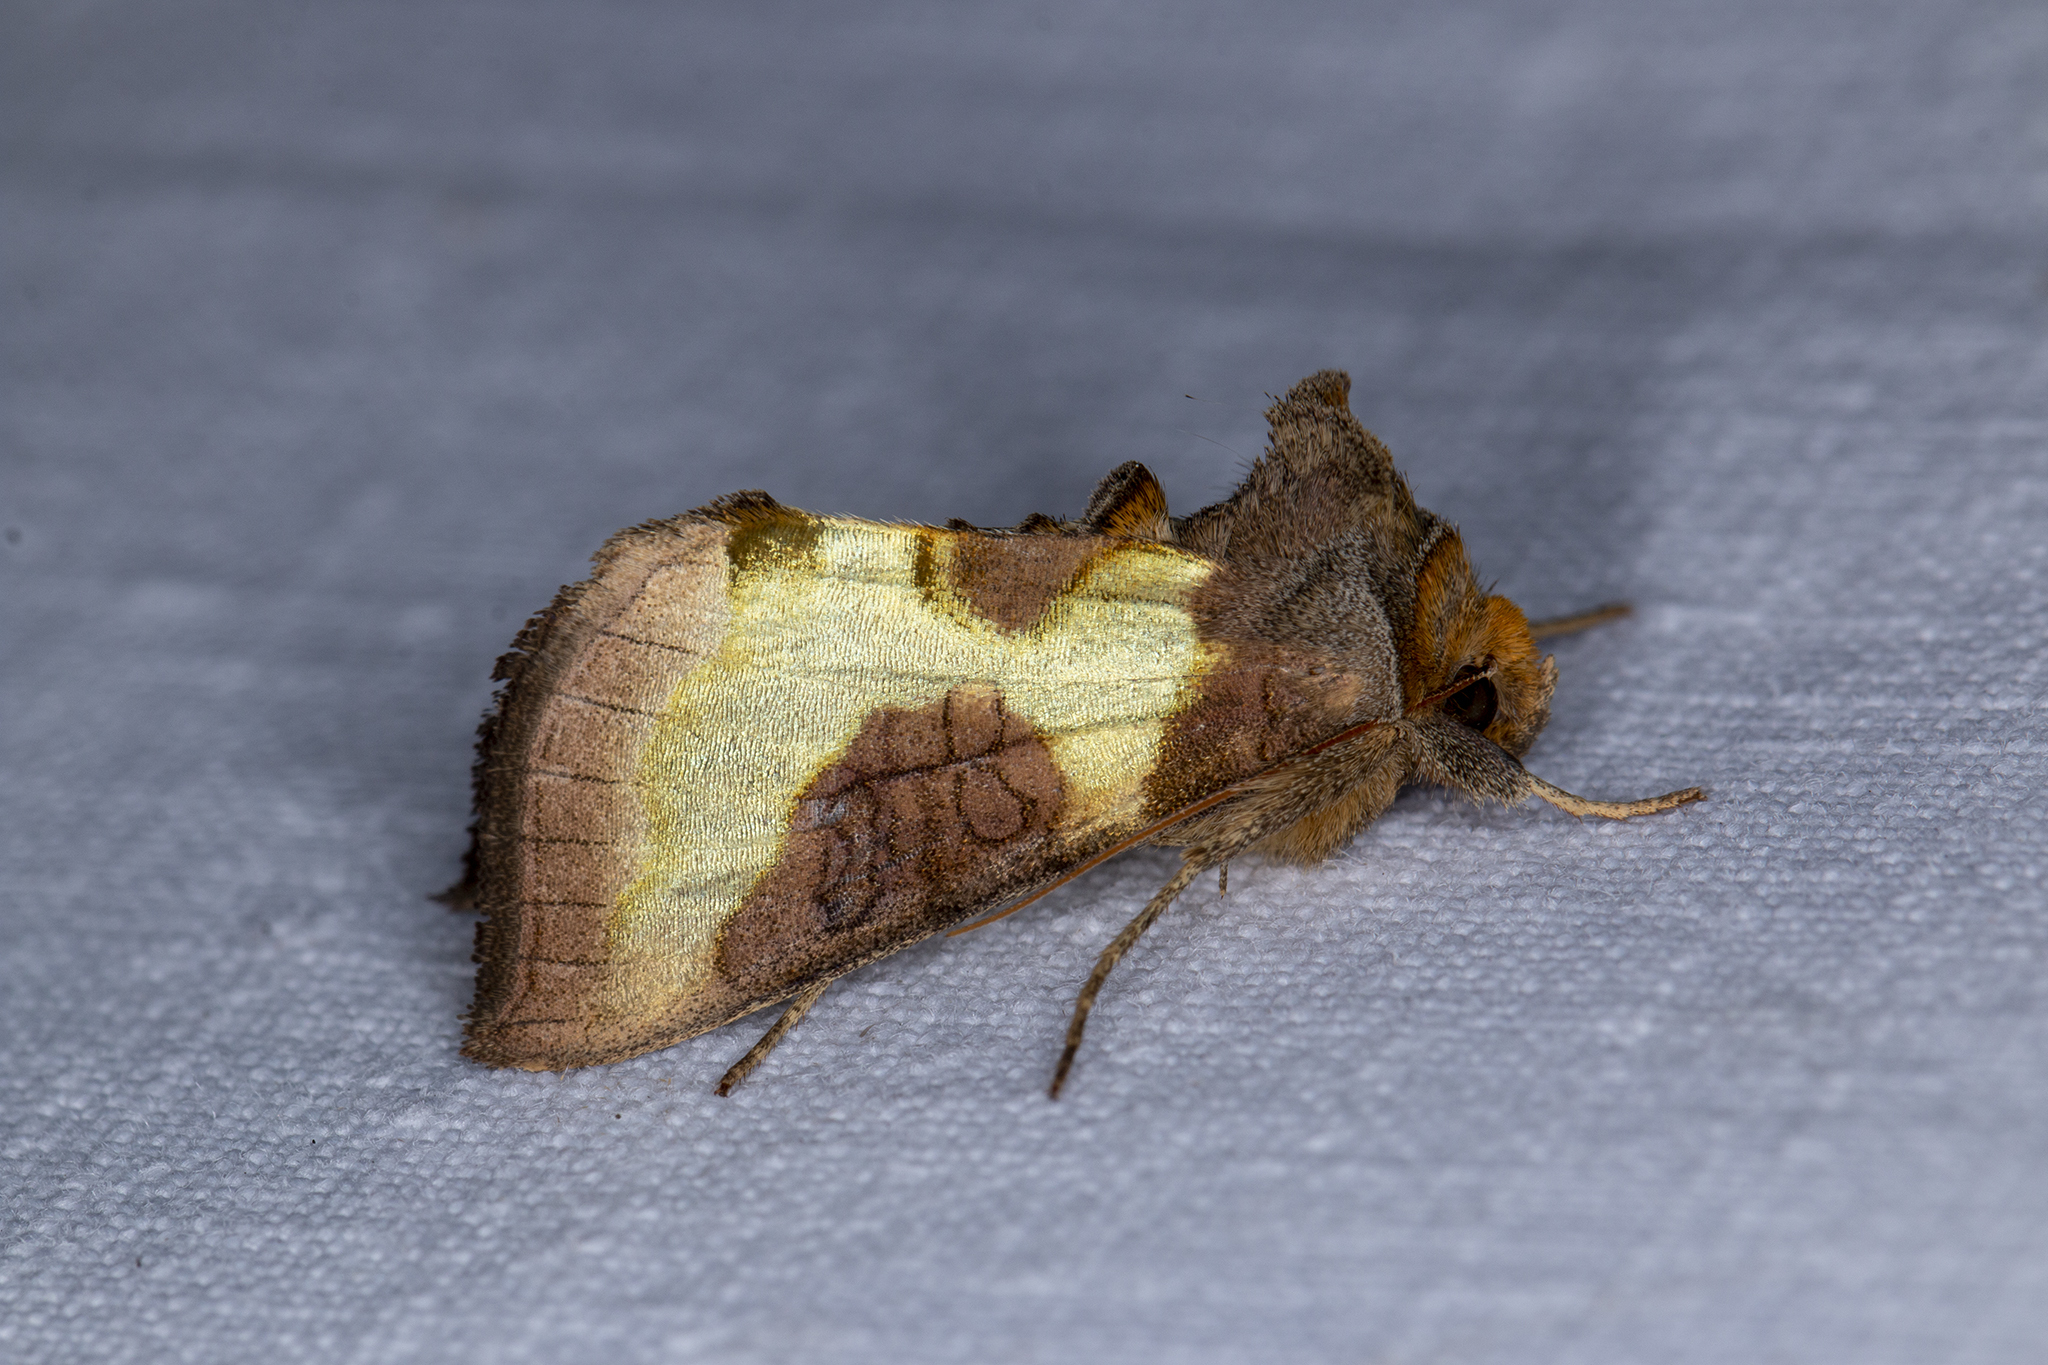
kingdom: Animalia
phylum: Arthropoda
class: Insecta
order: Lepidoptera
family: Noctuidae
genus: Diachrysia
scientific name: Diachrysia stenochrysis
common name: Cryptic burnished brass
